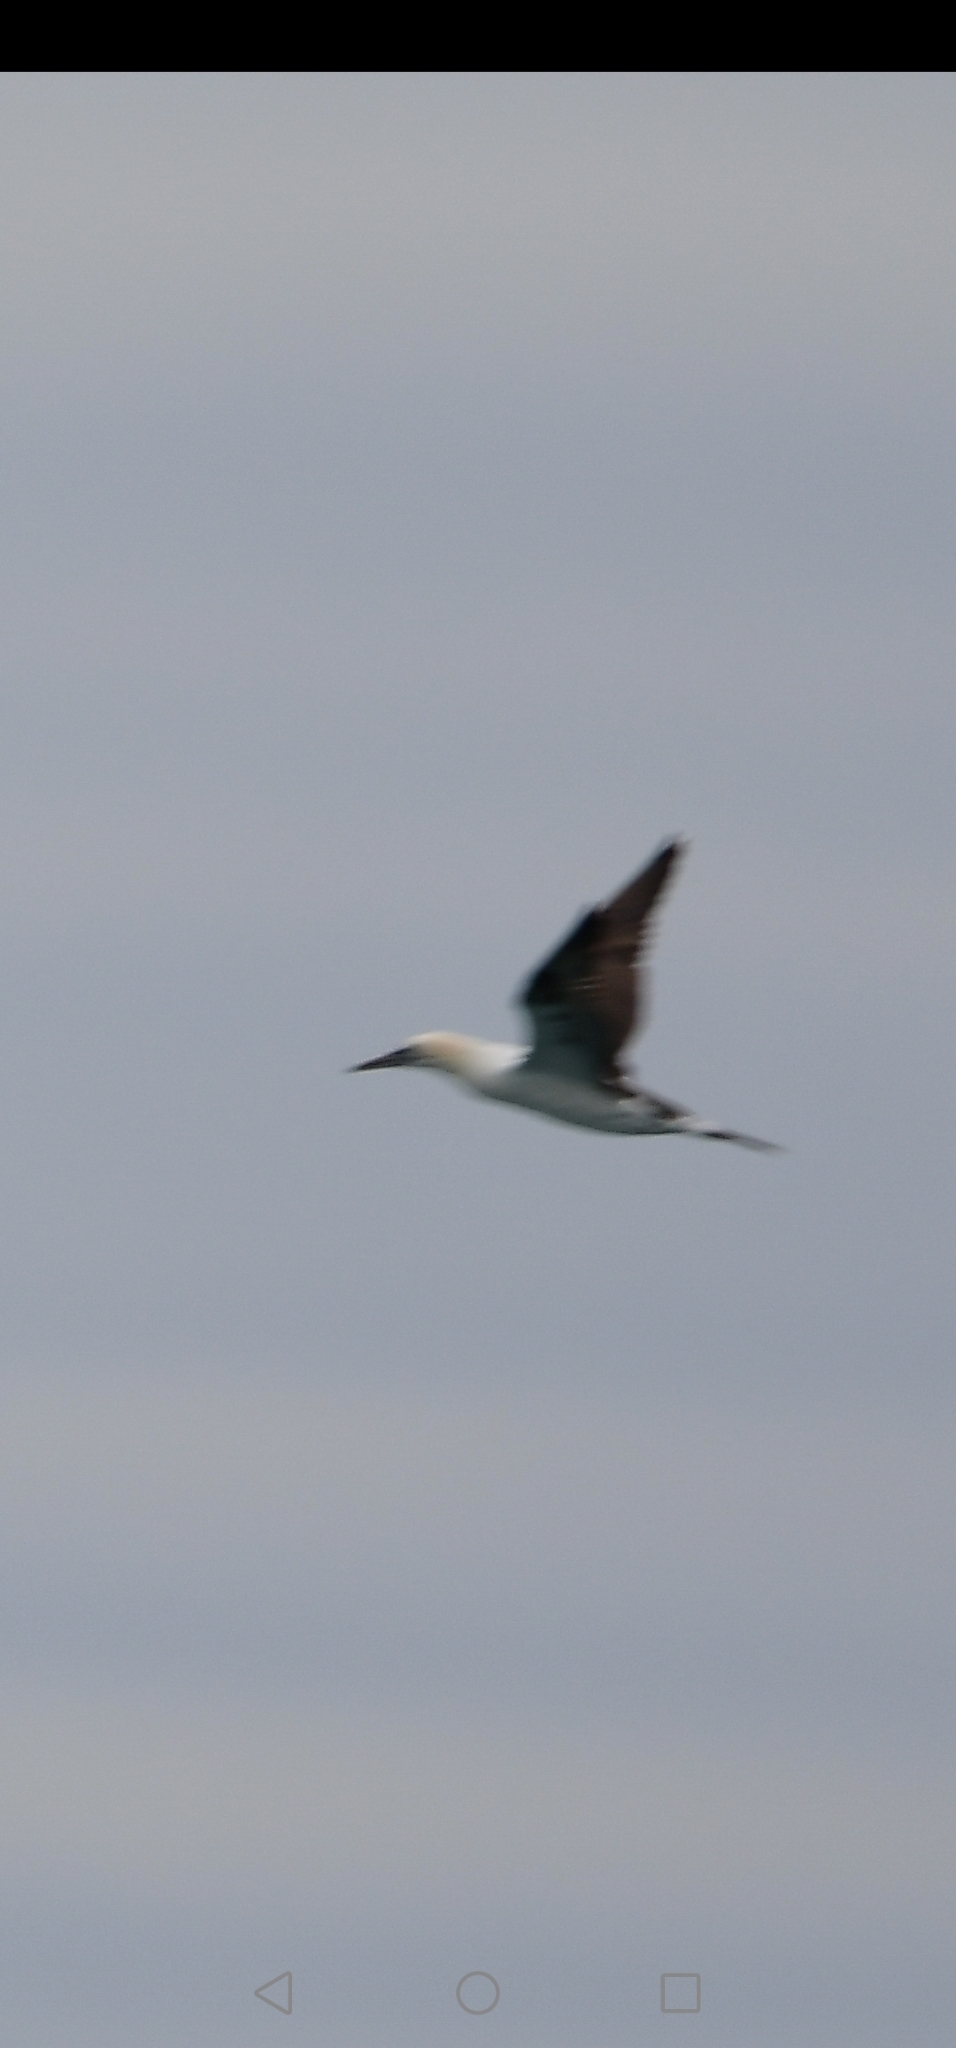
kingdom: Animalia
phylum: Chordata
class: Aves
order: Suliformes
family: Sulidae
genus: Morus
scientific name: Morus bassanus
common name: Northern gannet
